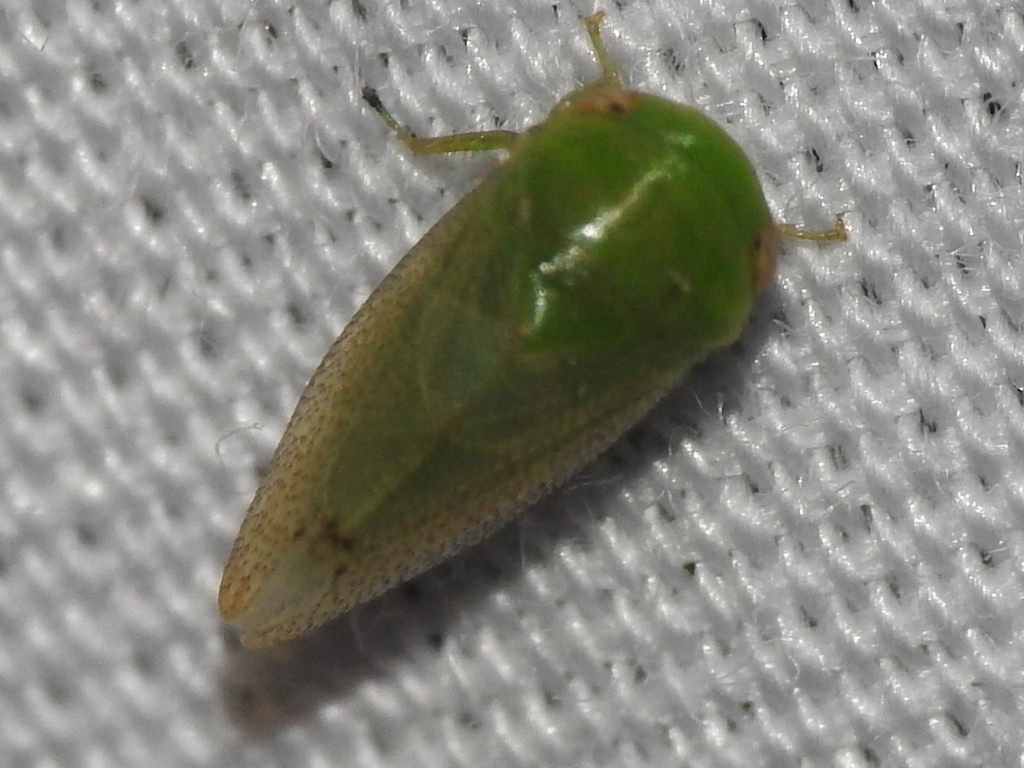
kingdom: Animalia
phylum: Arthropoda
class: Insecta
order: Hemiptera
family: Cicadellidae
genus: Penestragania
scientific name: Penestragania robusta
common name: Robust leafhopper
